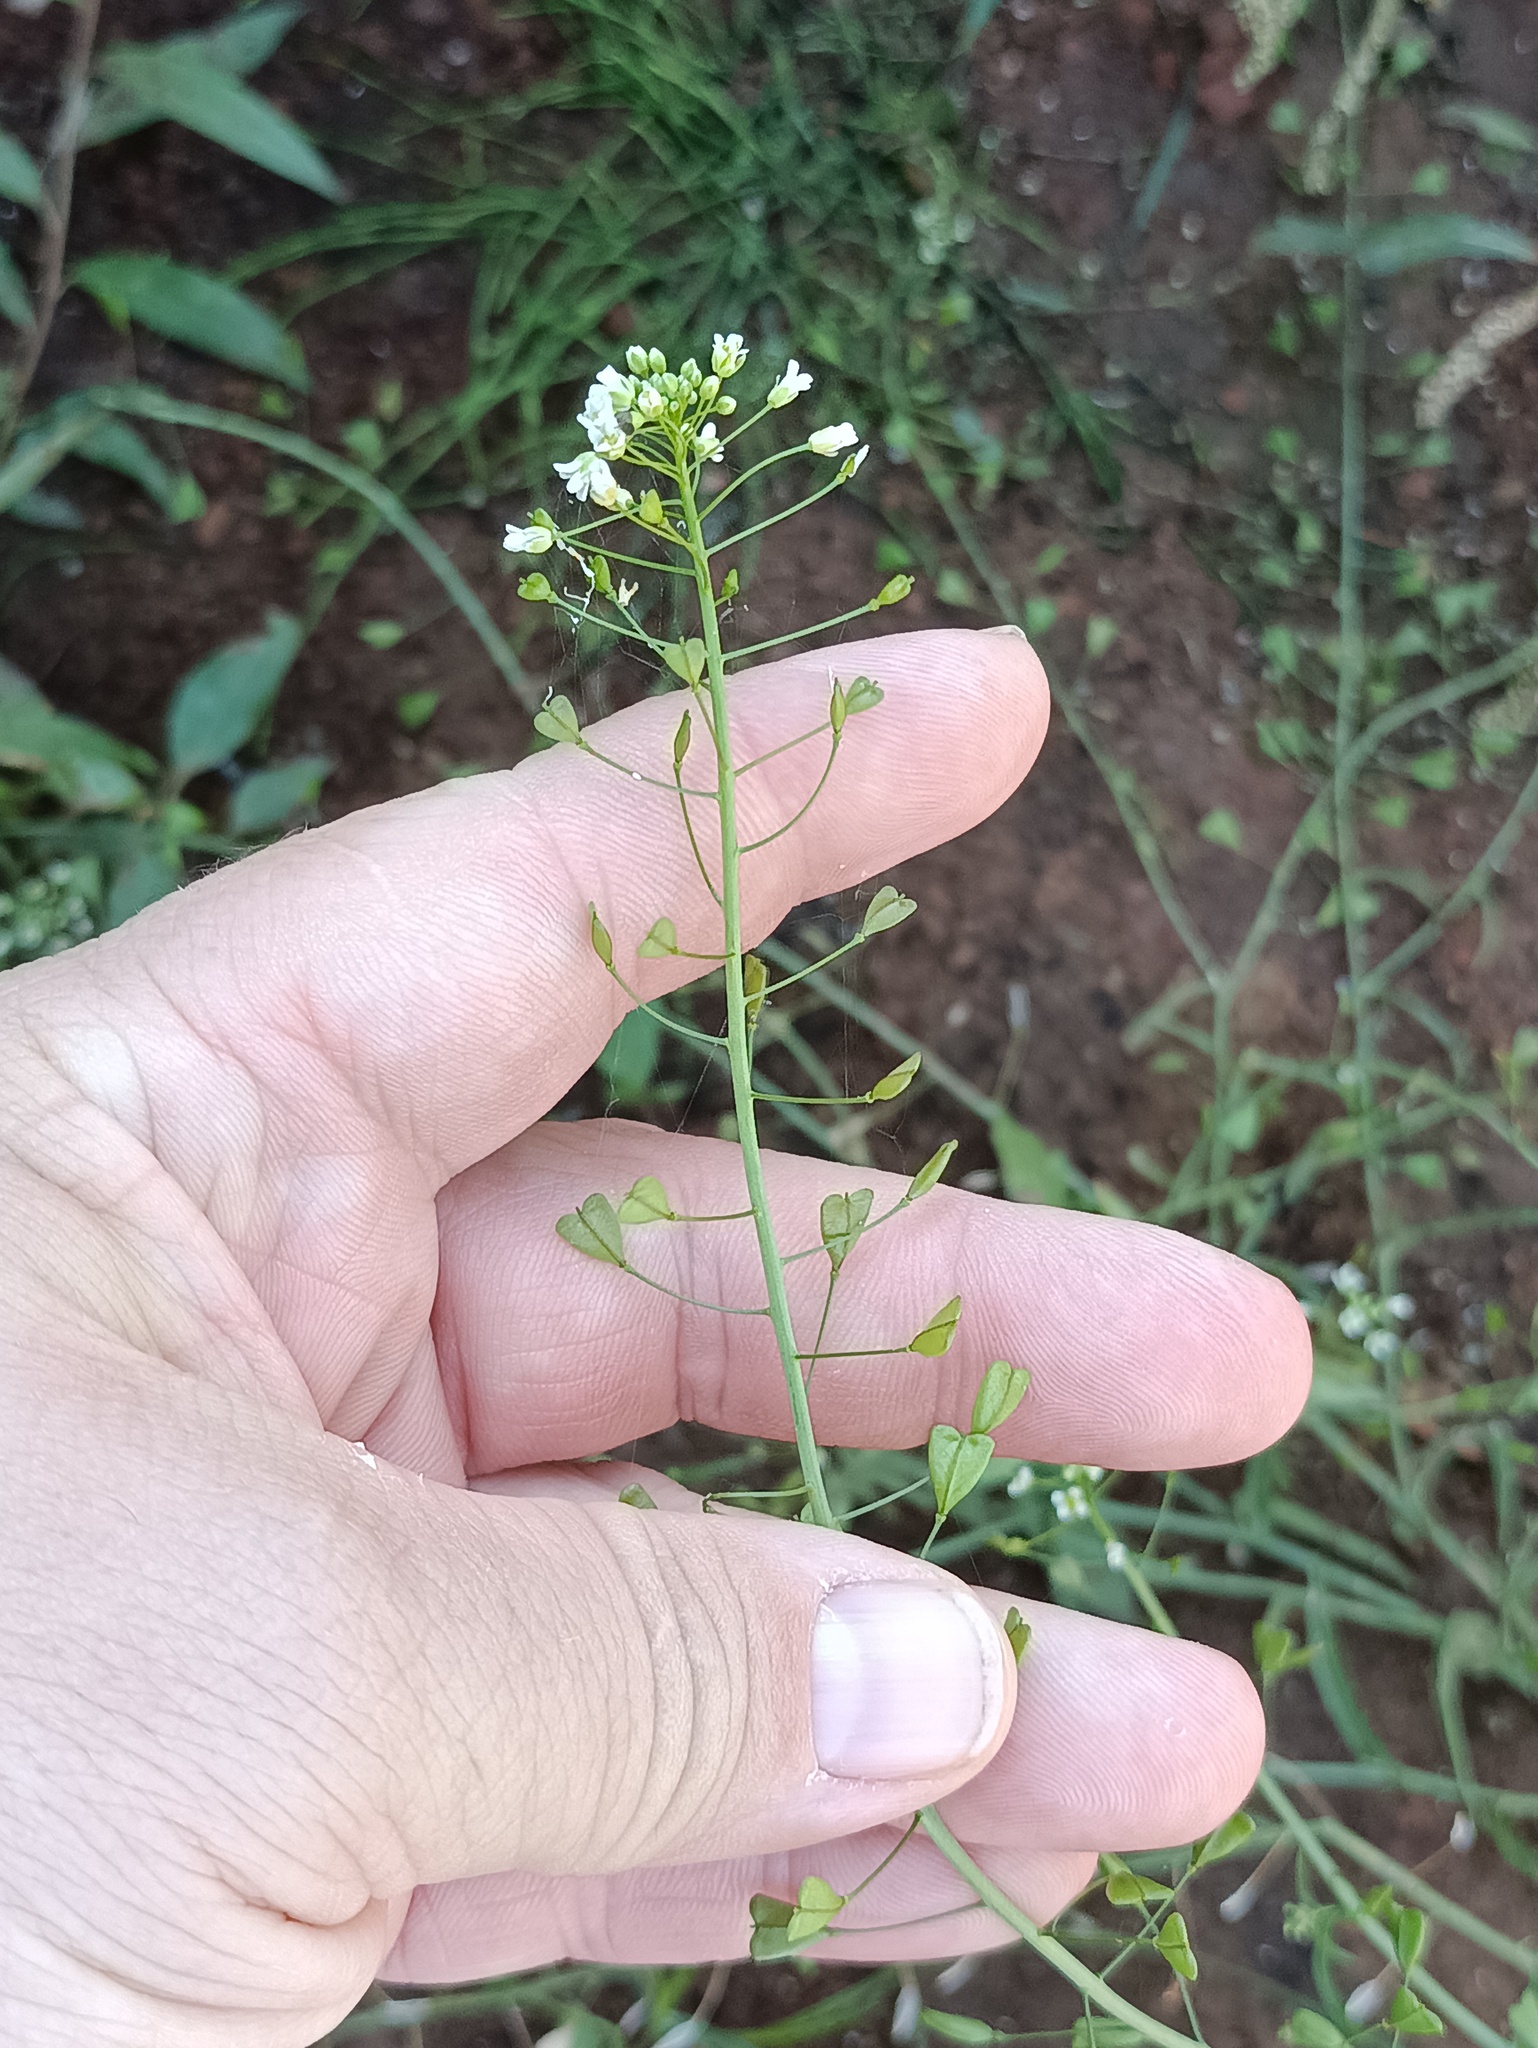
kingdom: Plantae
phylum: Tracheophyta
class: Magnoliopsida
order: Brassicales
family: Brassicaceae
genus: Capsella
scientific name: Capsella bursa-pastoris
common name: Shepherd's purse
